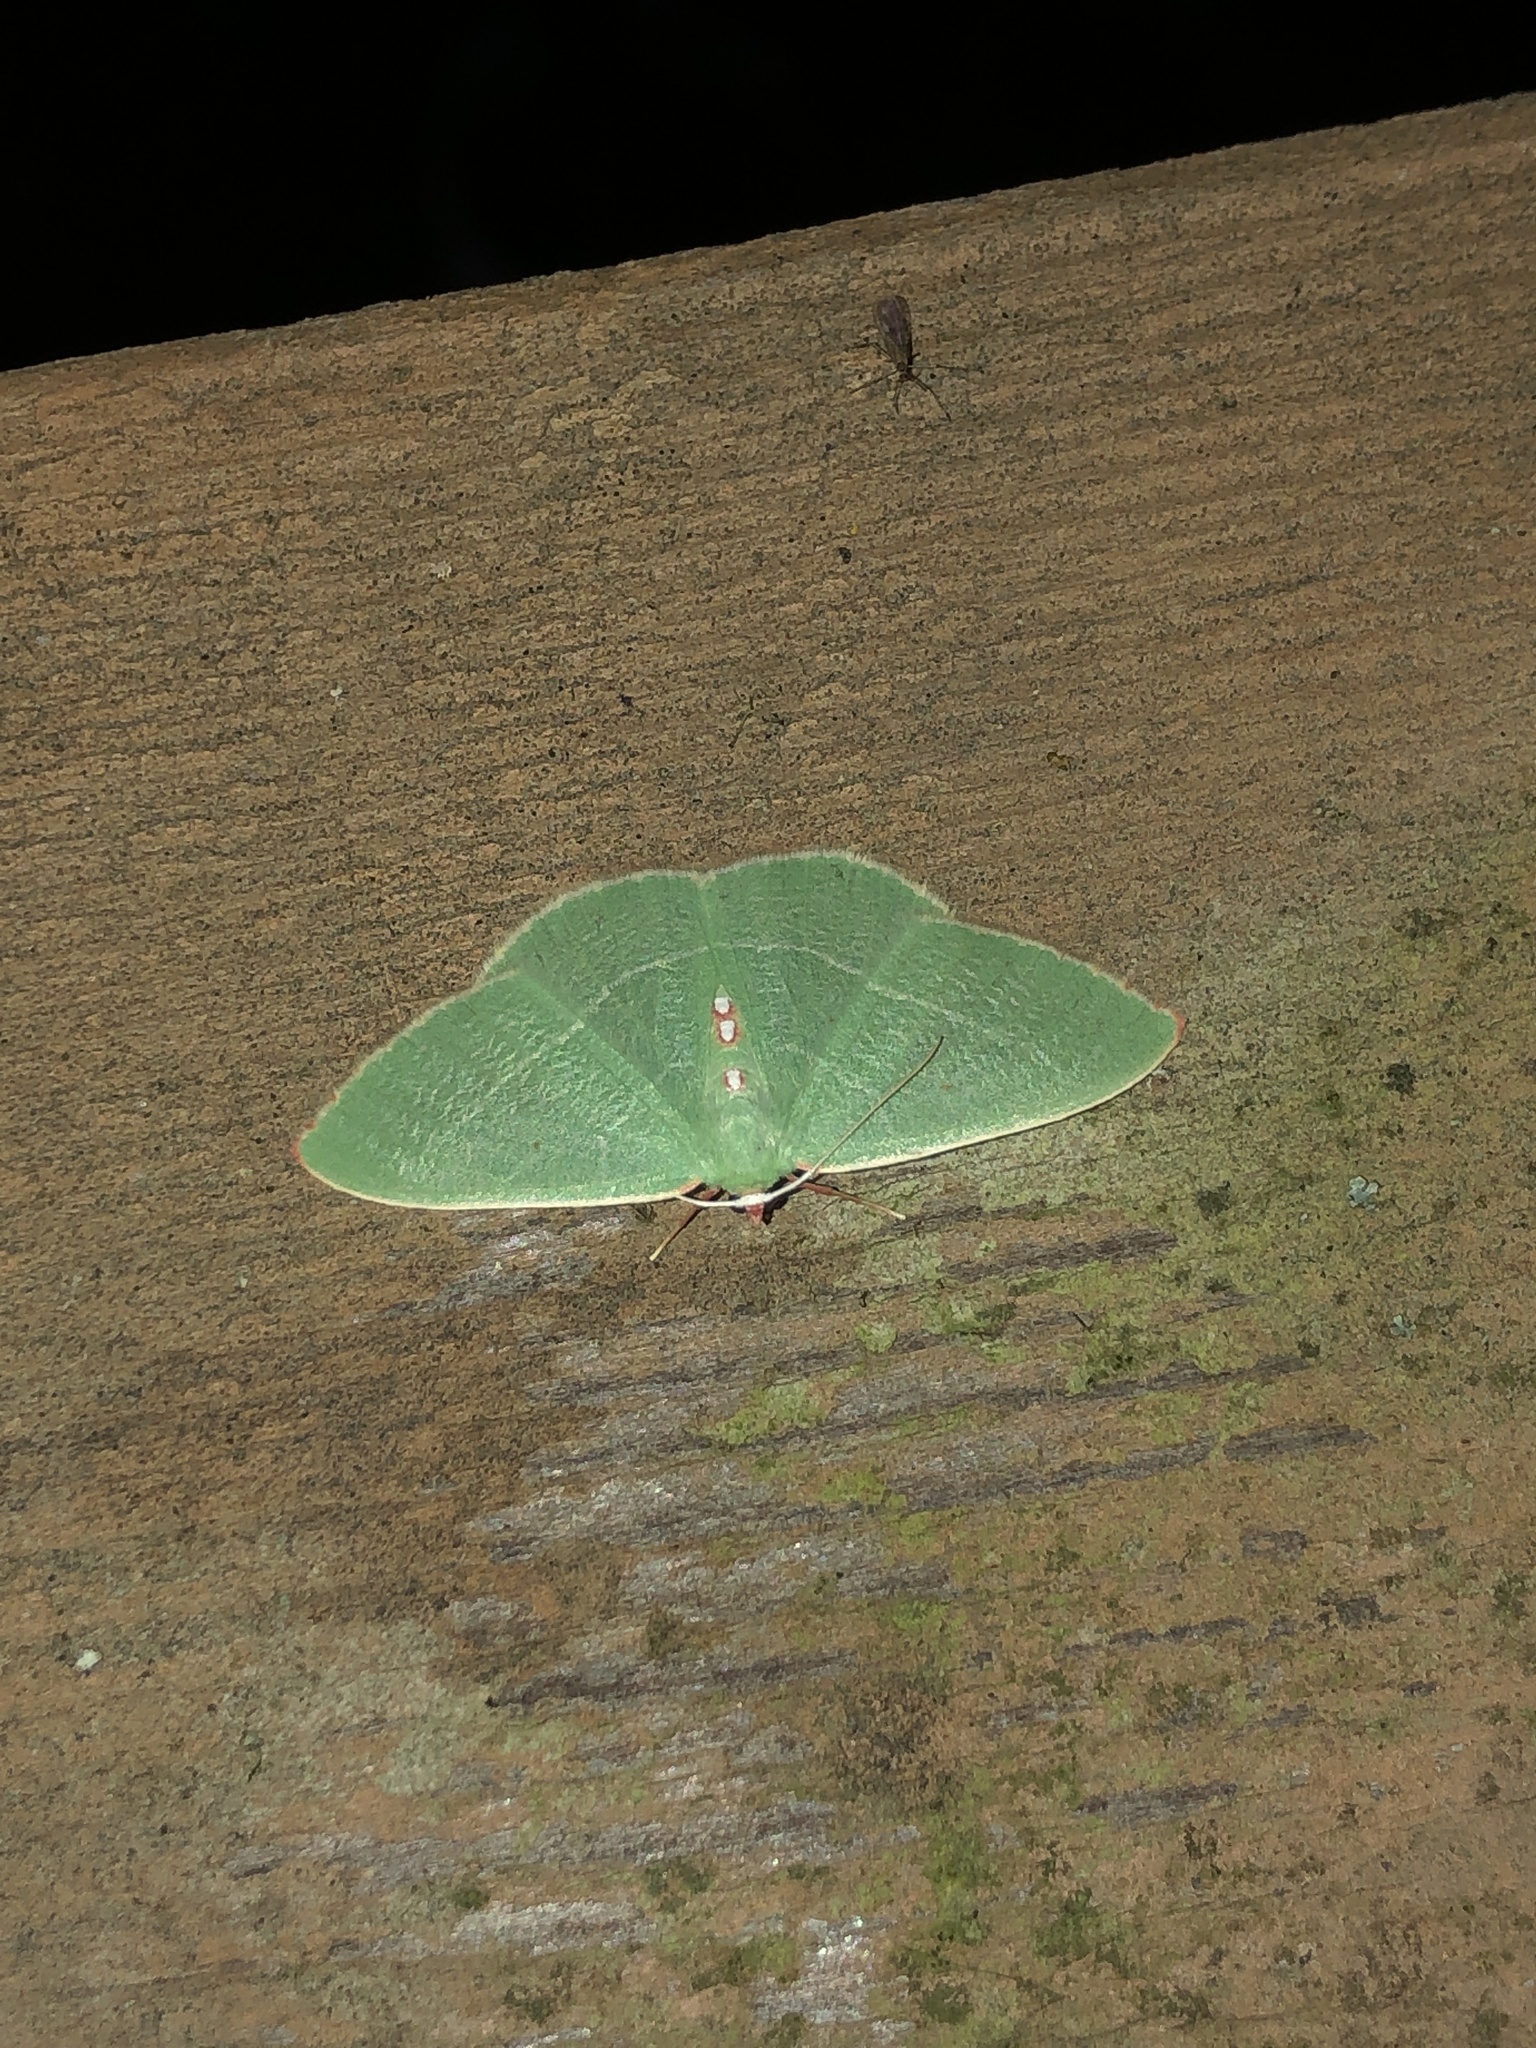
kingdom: Animalia
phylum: Arthropoda
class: Insecta
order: Lepidoptera
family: Geometridae
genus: Nemoria
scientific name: Nemoria darwiniata
